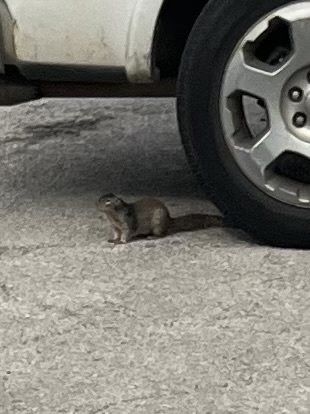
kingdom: Animalia
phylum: Chordata
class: Mammalia
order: Rodentia
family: Sciuridae
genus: Otospermophilus
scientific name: Otospermophilus variegatus
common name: Rock squirrel
